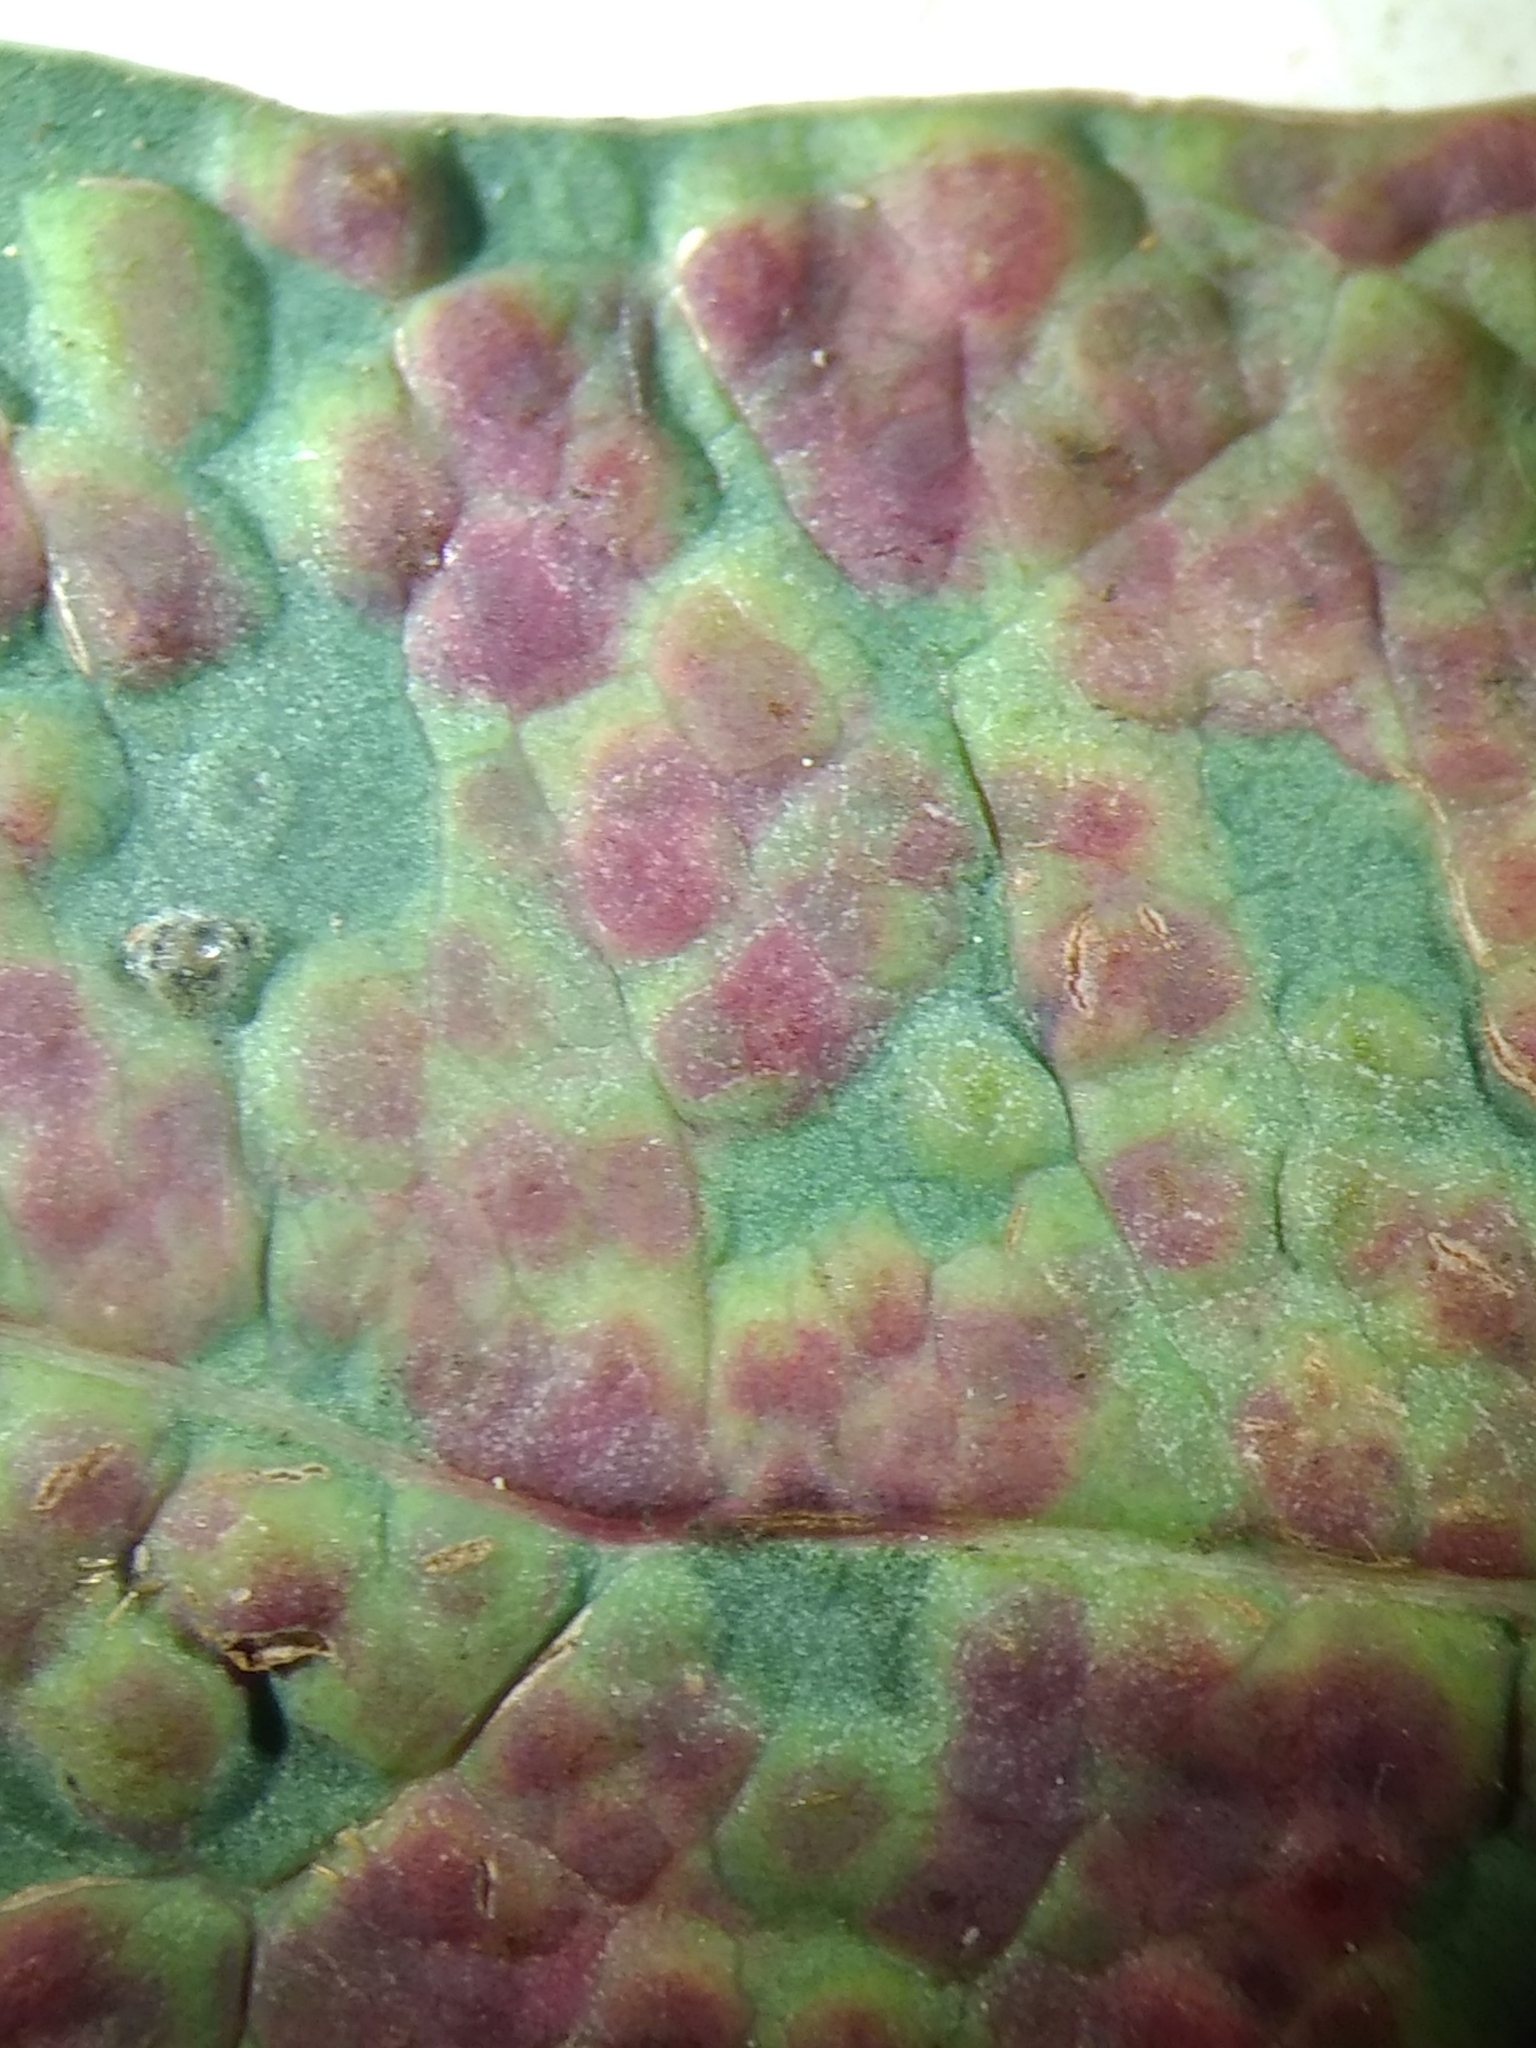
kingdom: Animalia
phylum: Arthropoda
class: Insecta
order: Hymenoptera
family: Eulophidae
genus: Ophelimus
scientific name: Ophelimus maskelli
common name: Gall wasp
